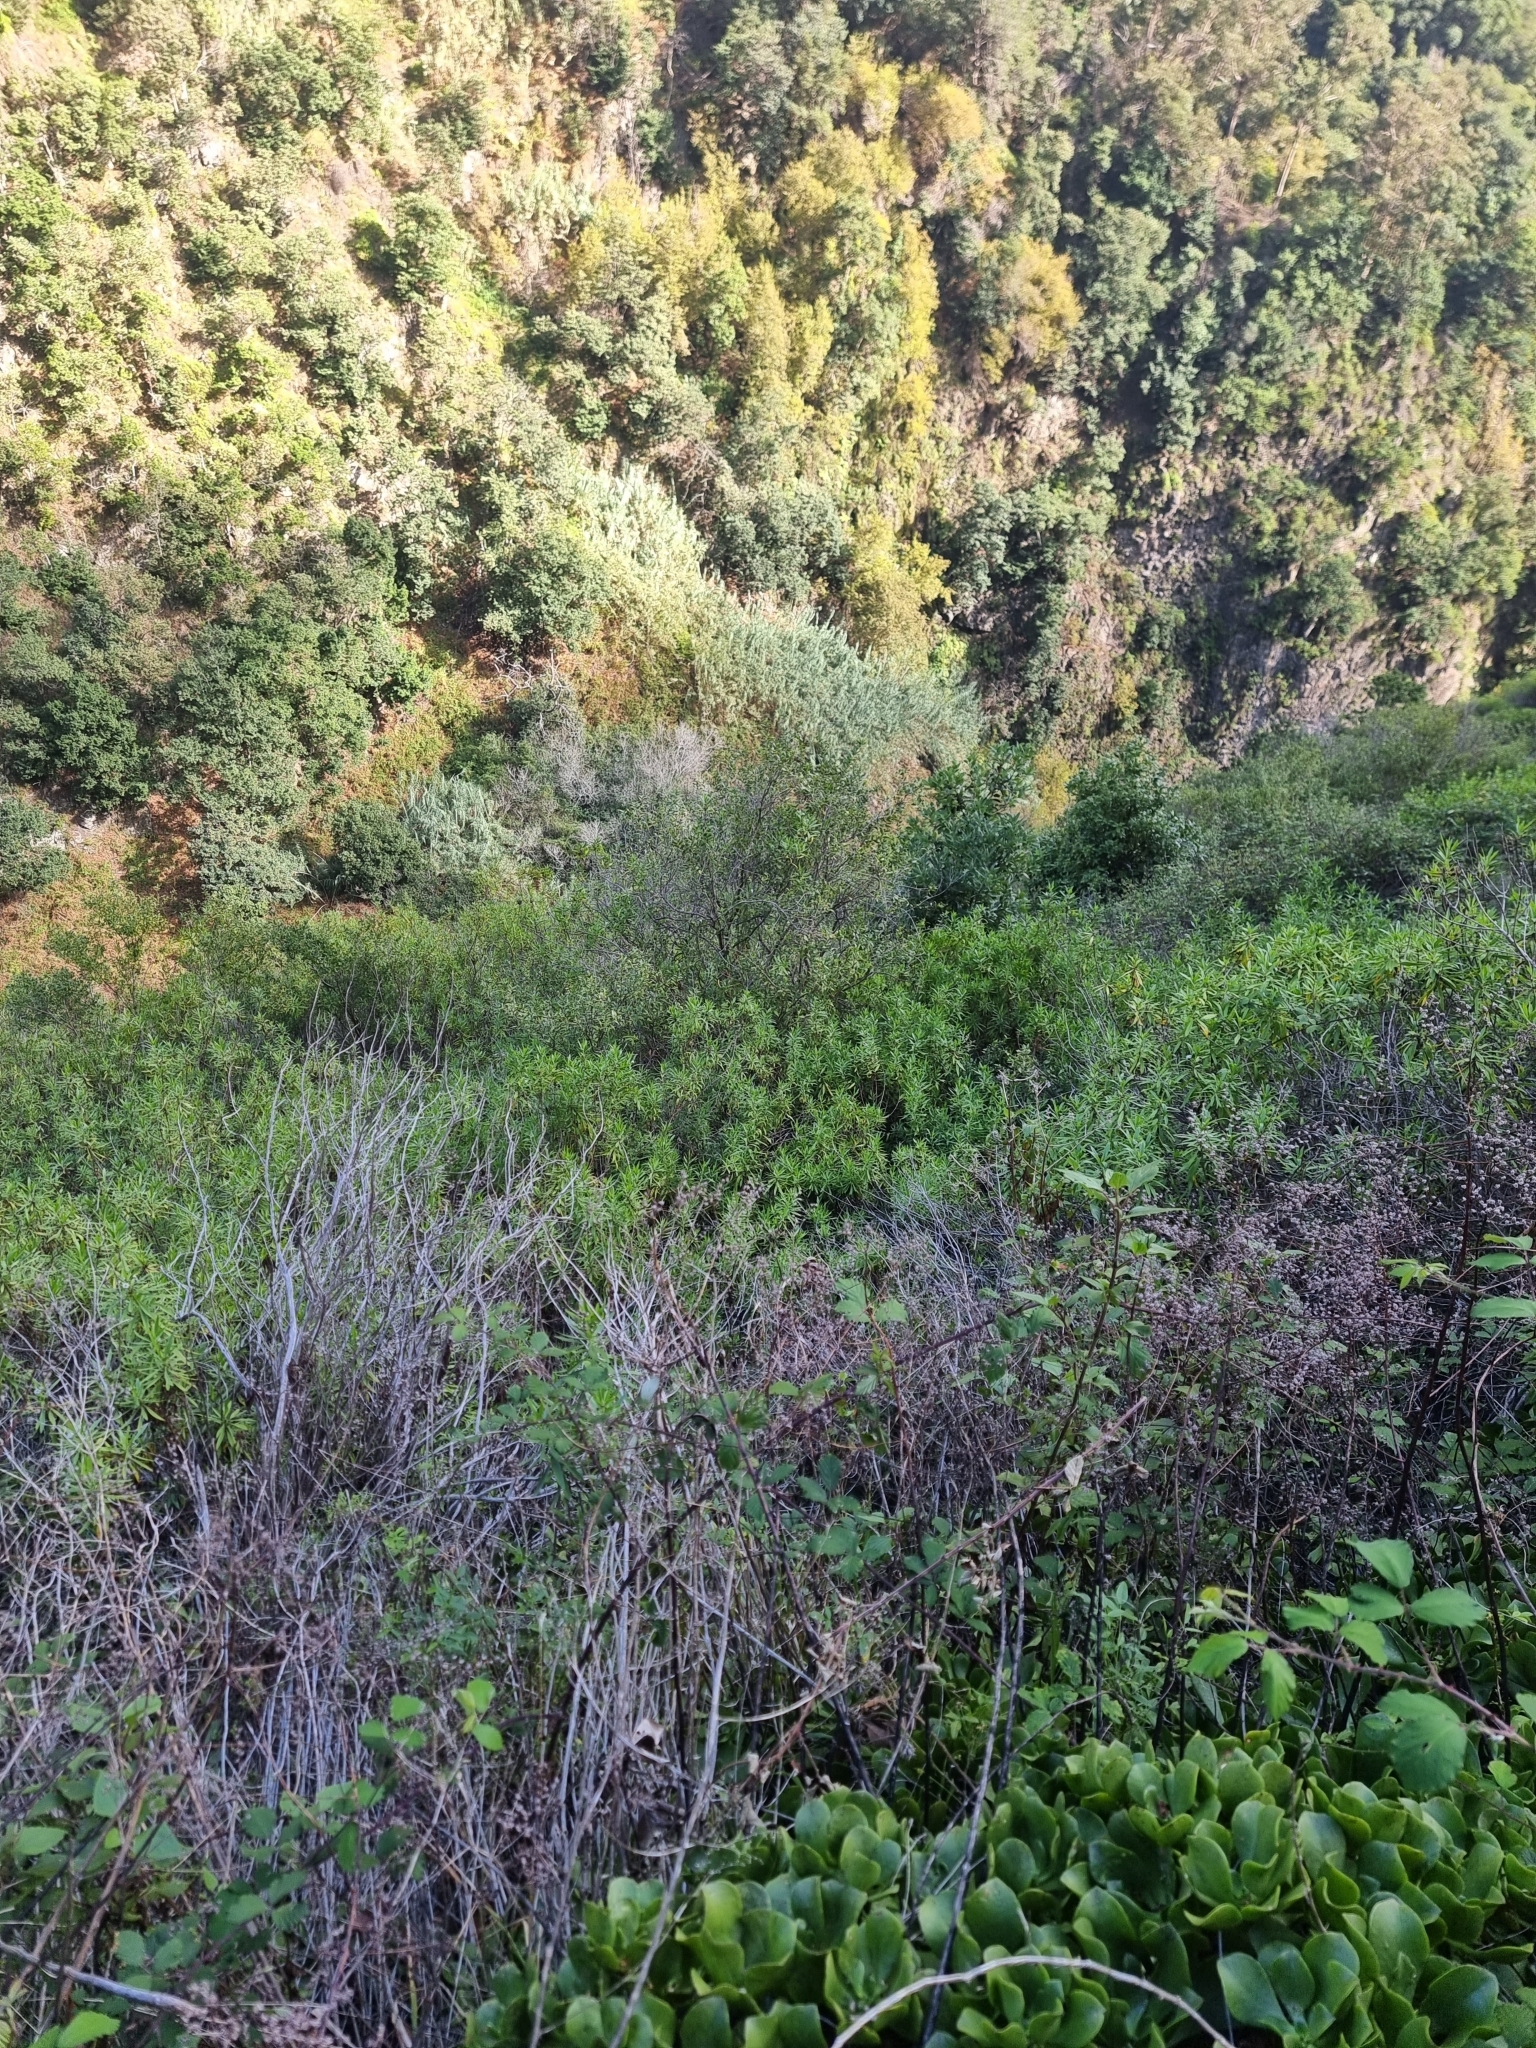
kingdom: Plantae
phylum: Tracheophyta
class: Magnoliopsida
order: Lamiales
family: Plantaginaceae
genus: Globularia
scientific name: Globularia salicina
